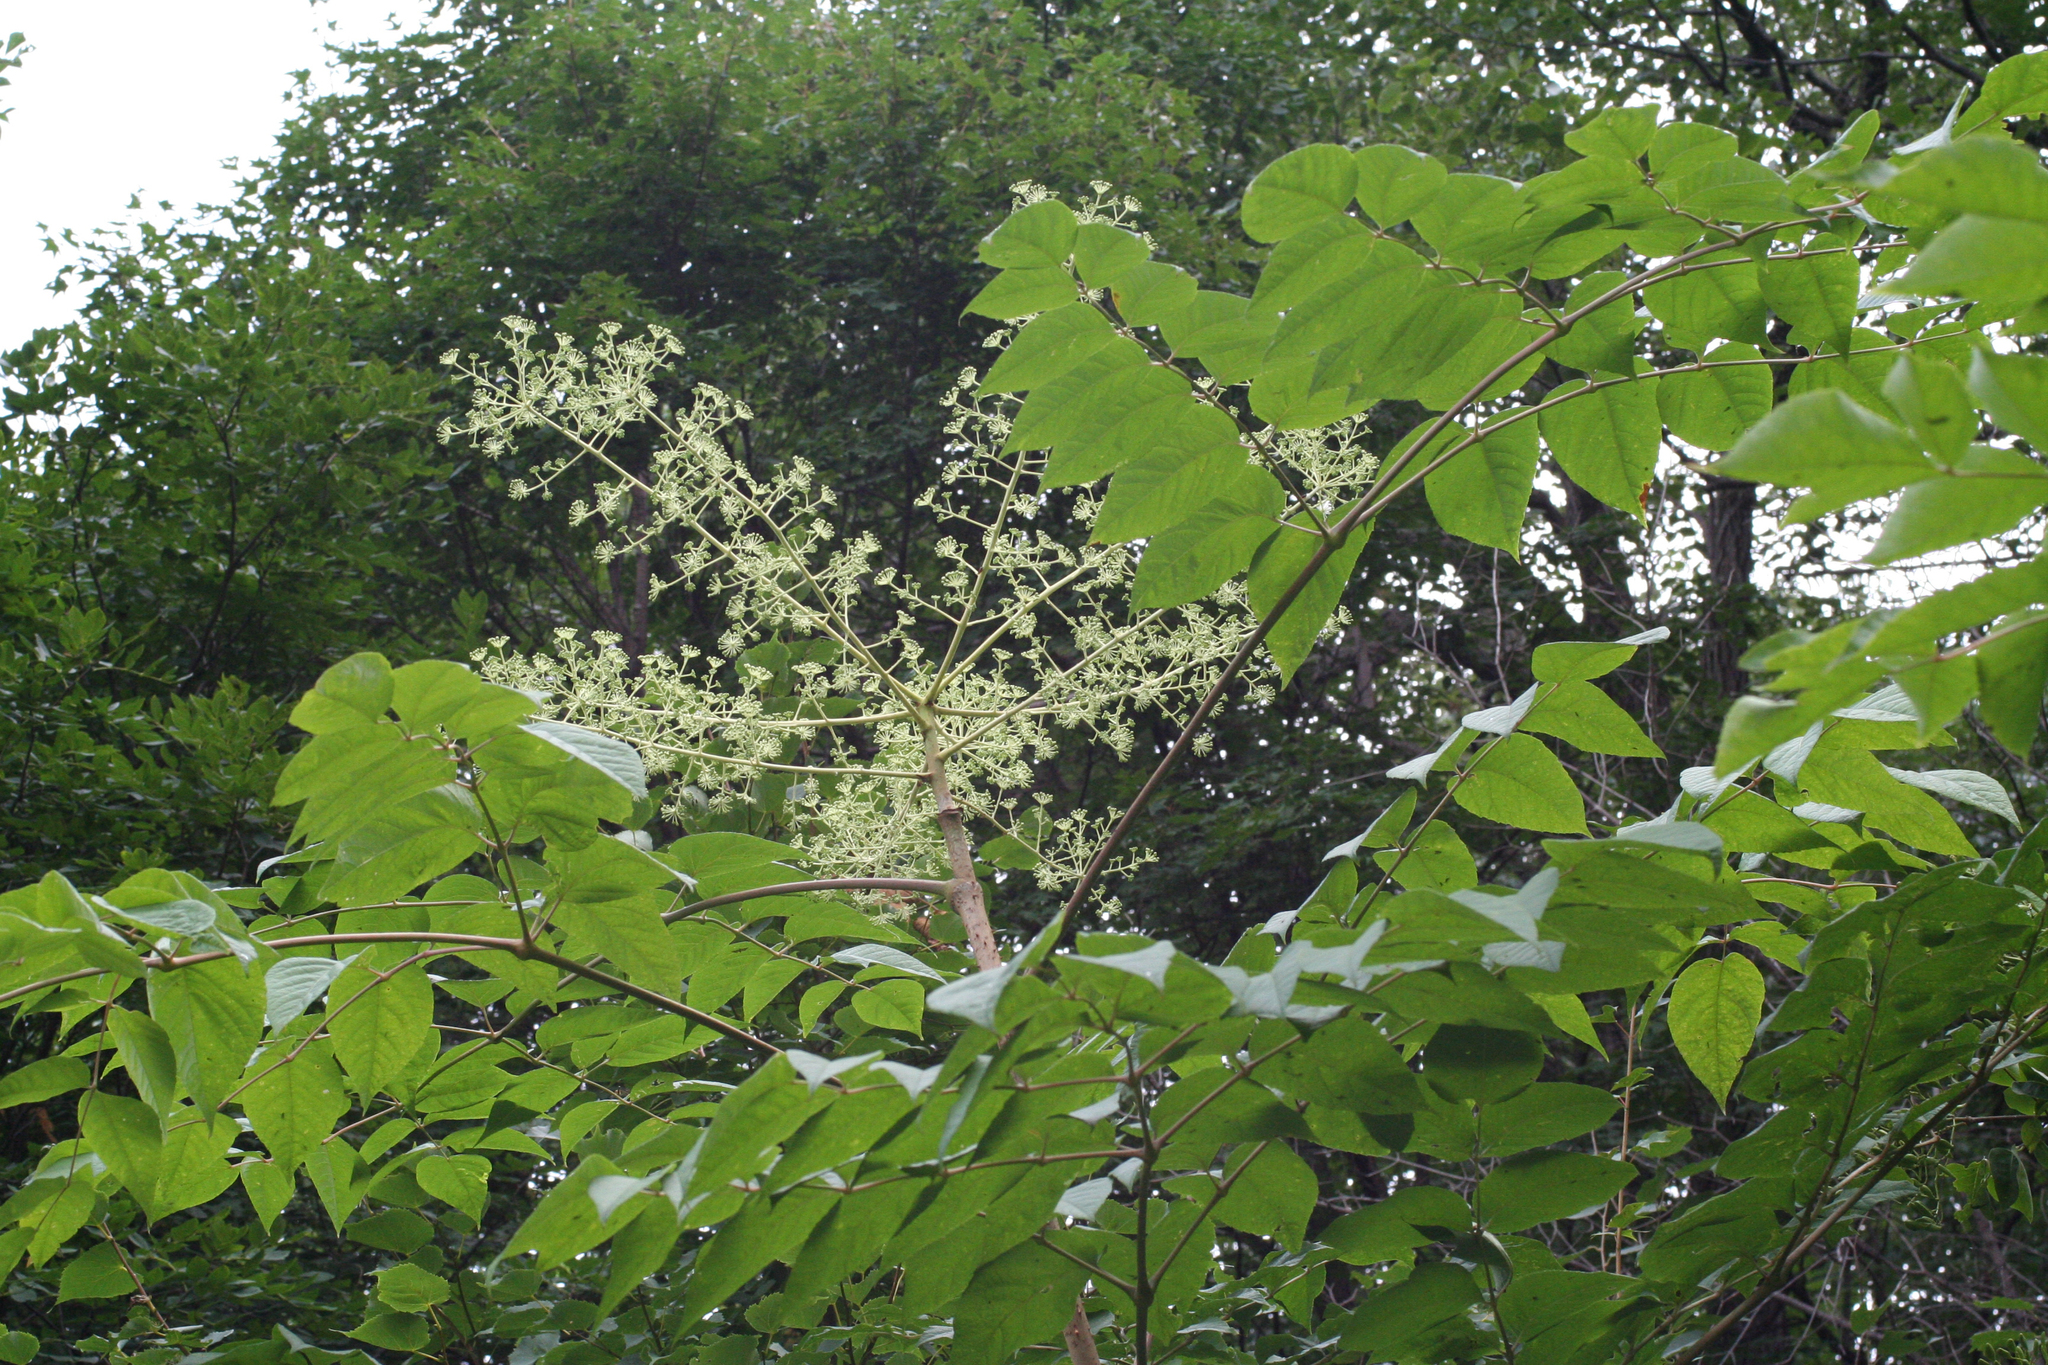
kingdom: Plantae
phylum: Tracheophyta
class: Magnoliopsida
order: Apiales
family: Araliaceae
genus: Aralia
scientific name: Aralia elata
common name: Japanese angelica-tree
